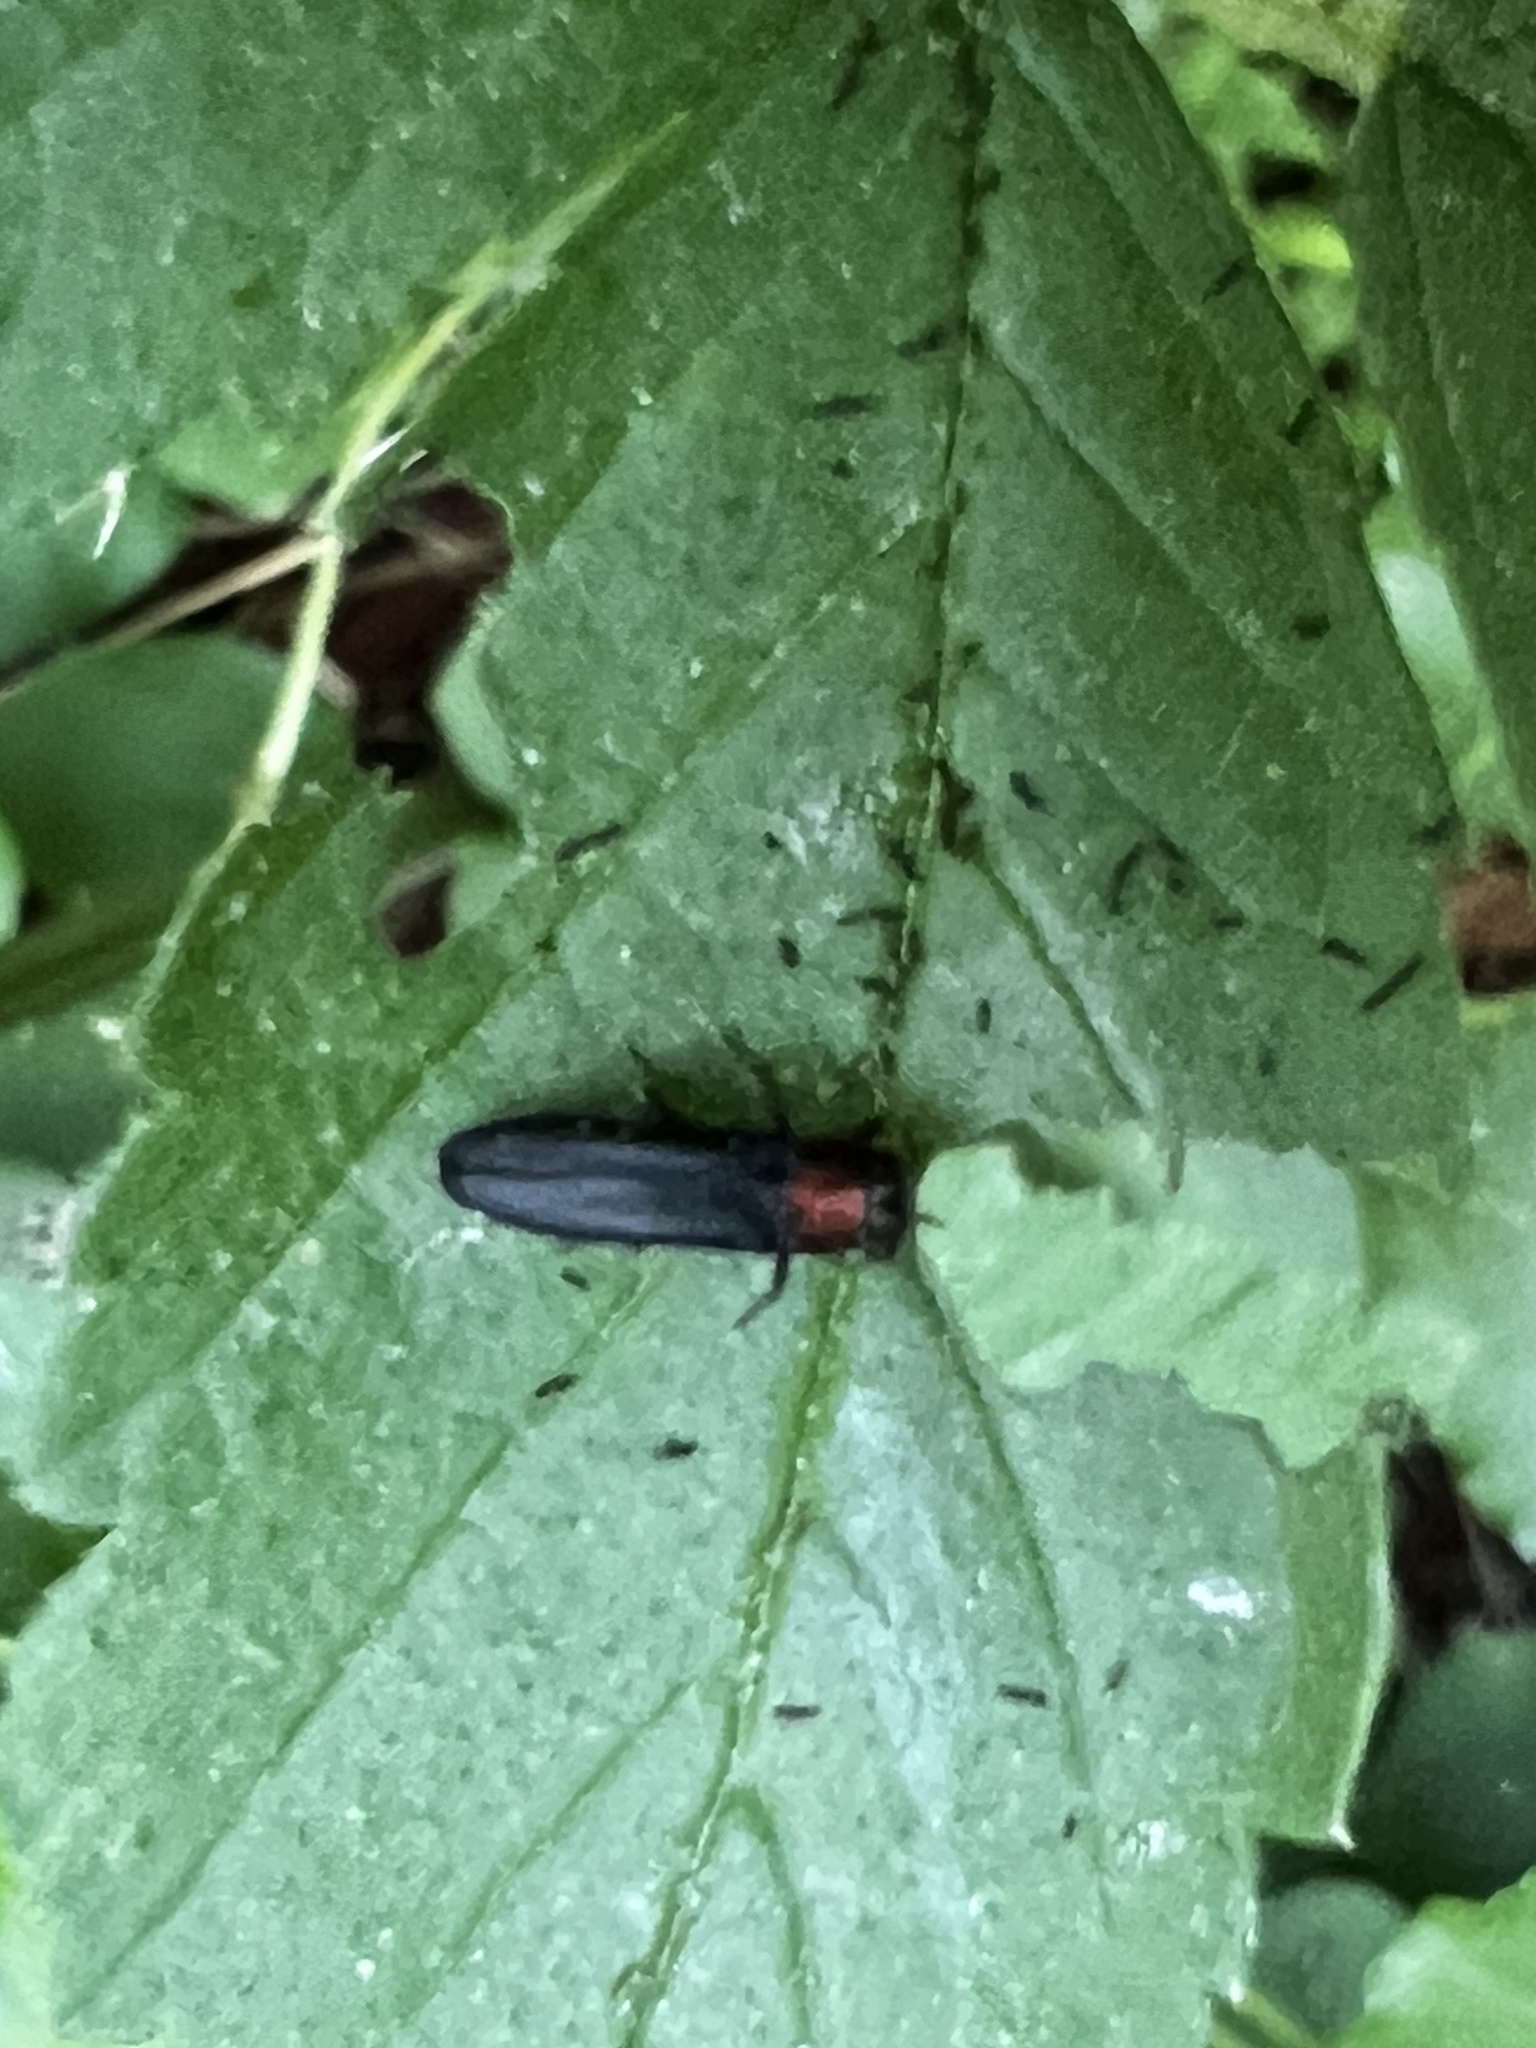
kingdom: Animalia
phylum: Arthropoda
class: Insecta
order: Coleoptera
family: Buprestidae
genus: Agrilus
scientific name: Agrilus ruficollis
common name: Red-necked cane borer beetle
